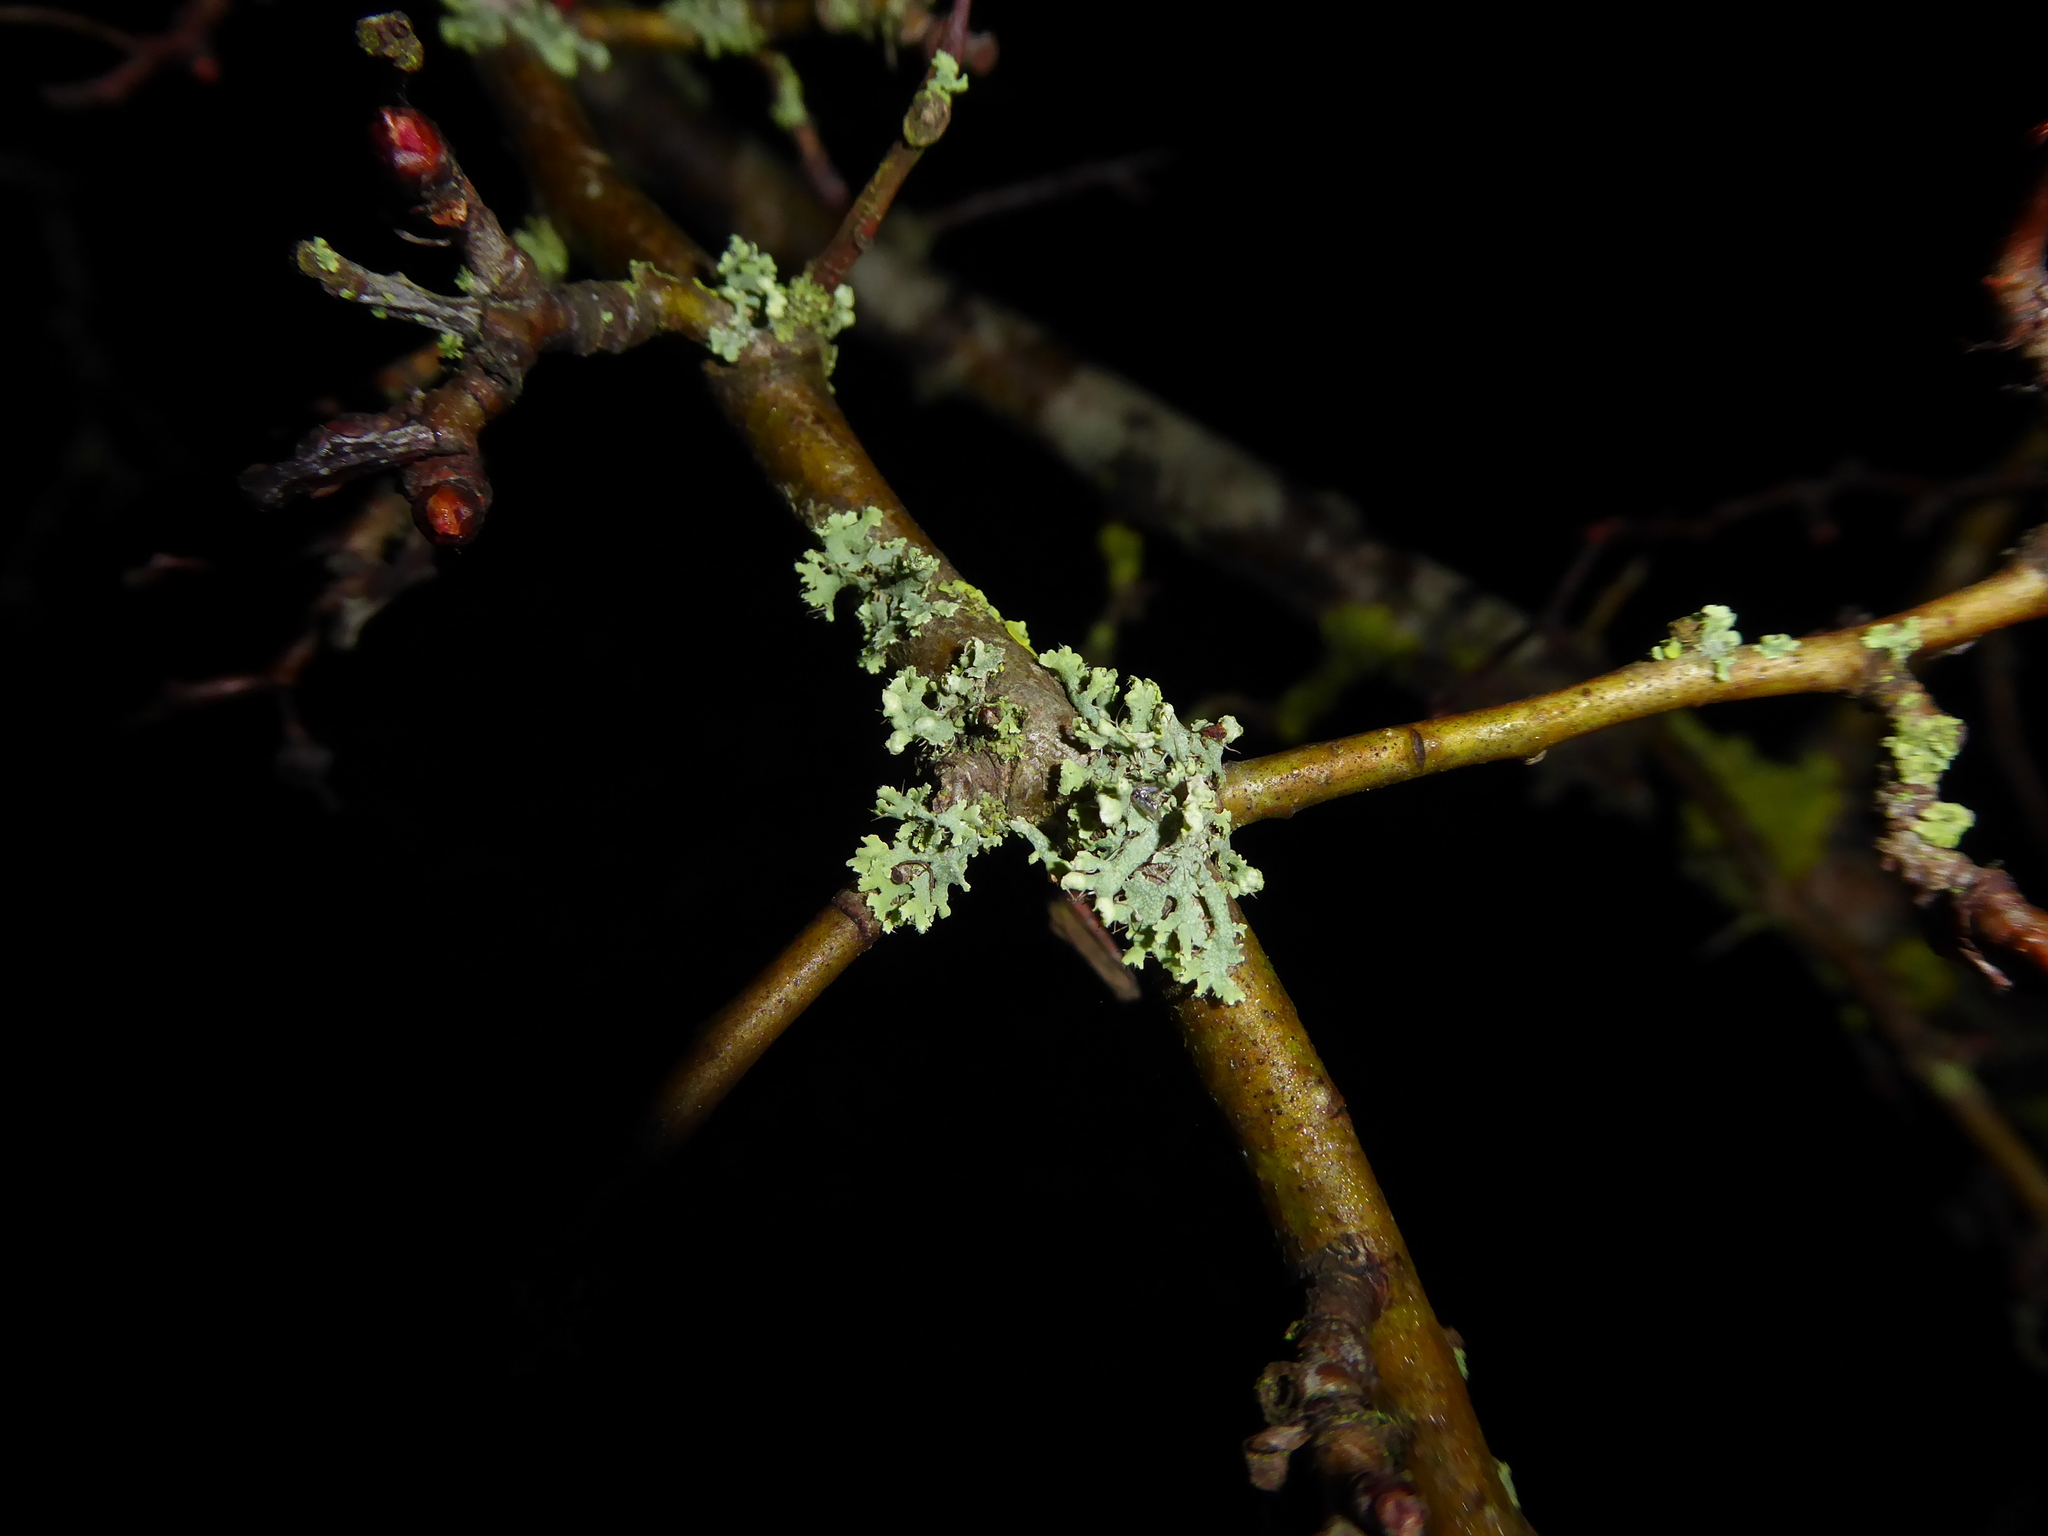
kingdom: Fungi
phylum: Ascomycota
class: Lecanoromycetes
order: Caliciales
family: Physciaceae
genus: Physcia
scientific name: Physcia adscendens
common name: Hooded rosette lichen
